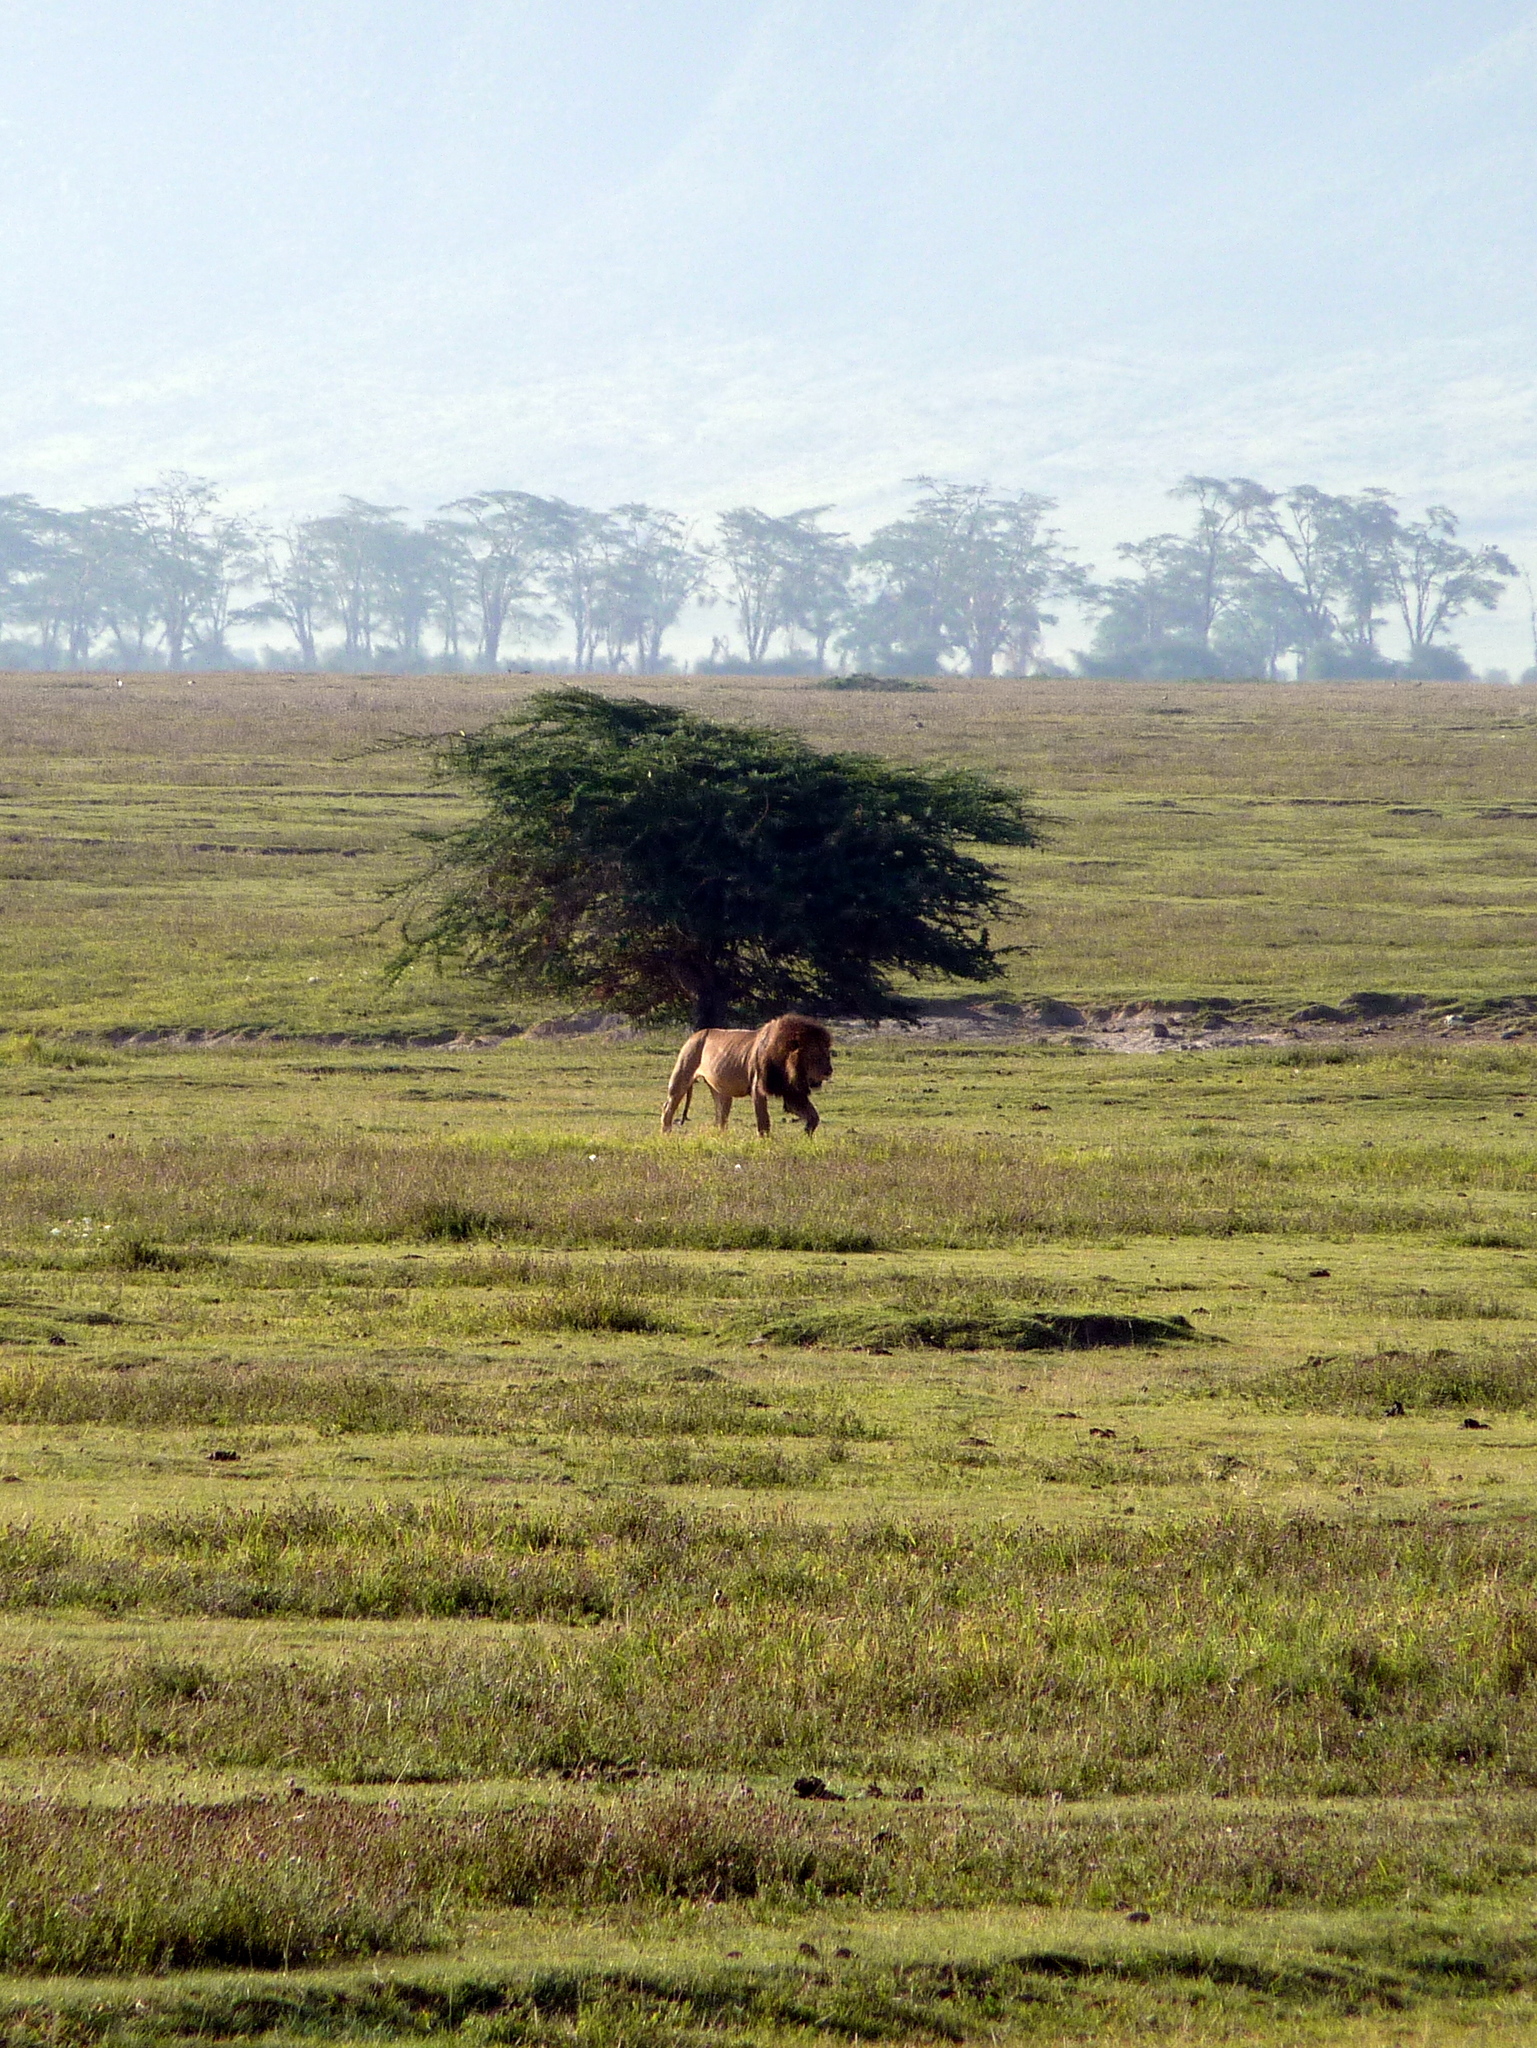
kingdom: Animalia
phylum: Chordata
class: Mammalia
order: Carnivora
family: Felidae
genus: Panthera
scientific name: Panthera leo
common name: Lion
